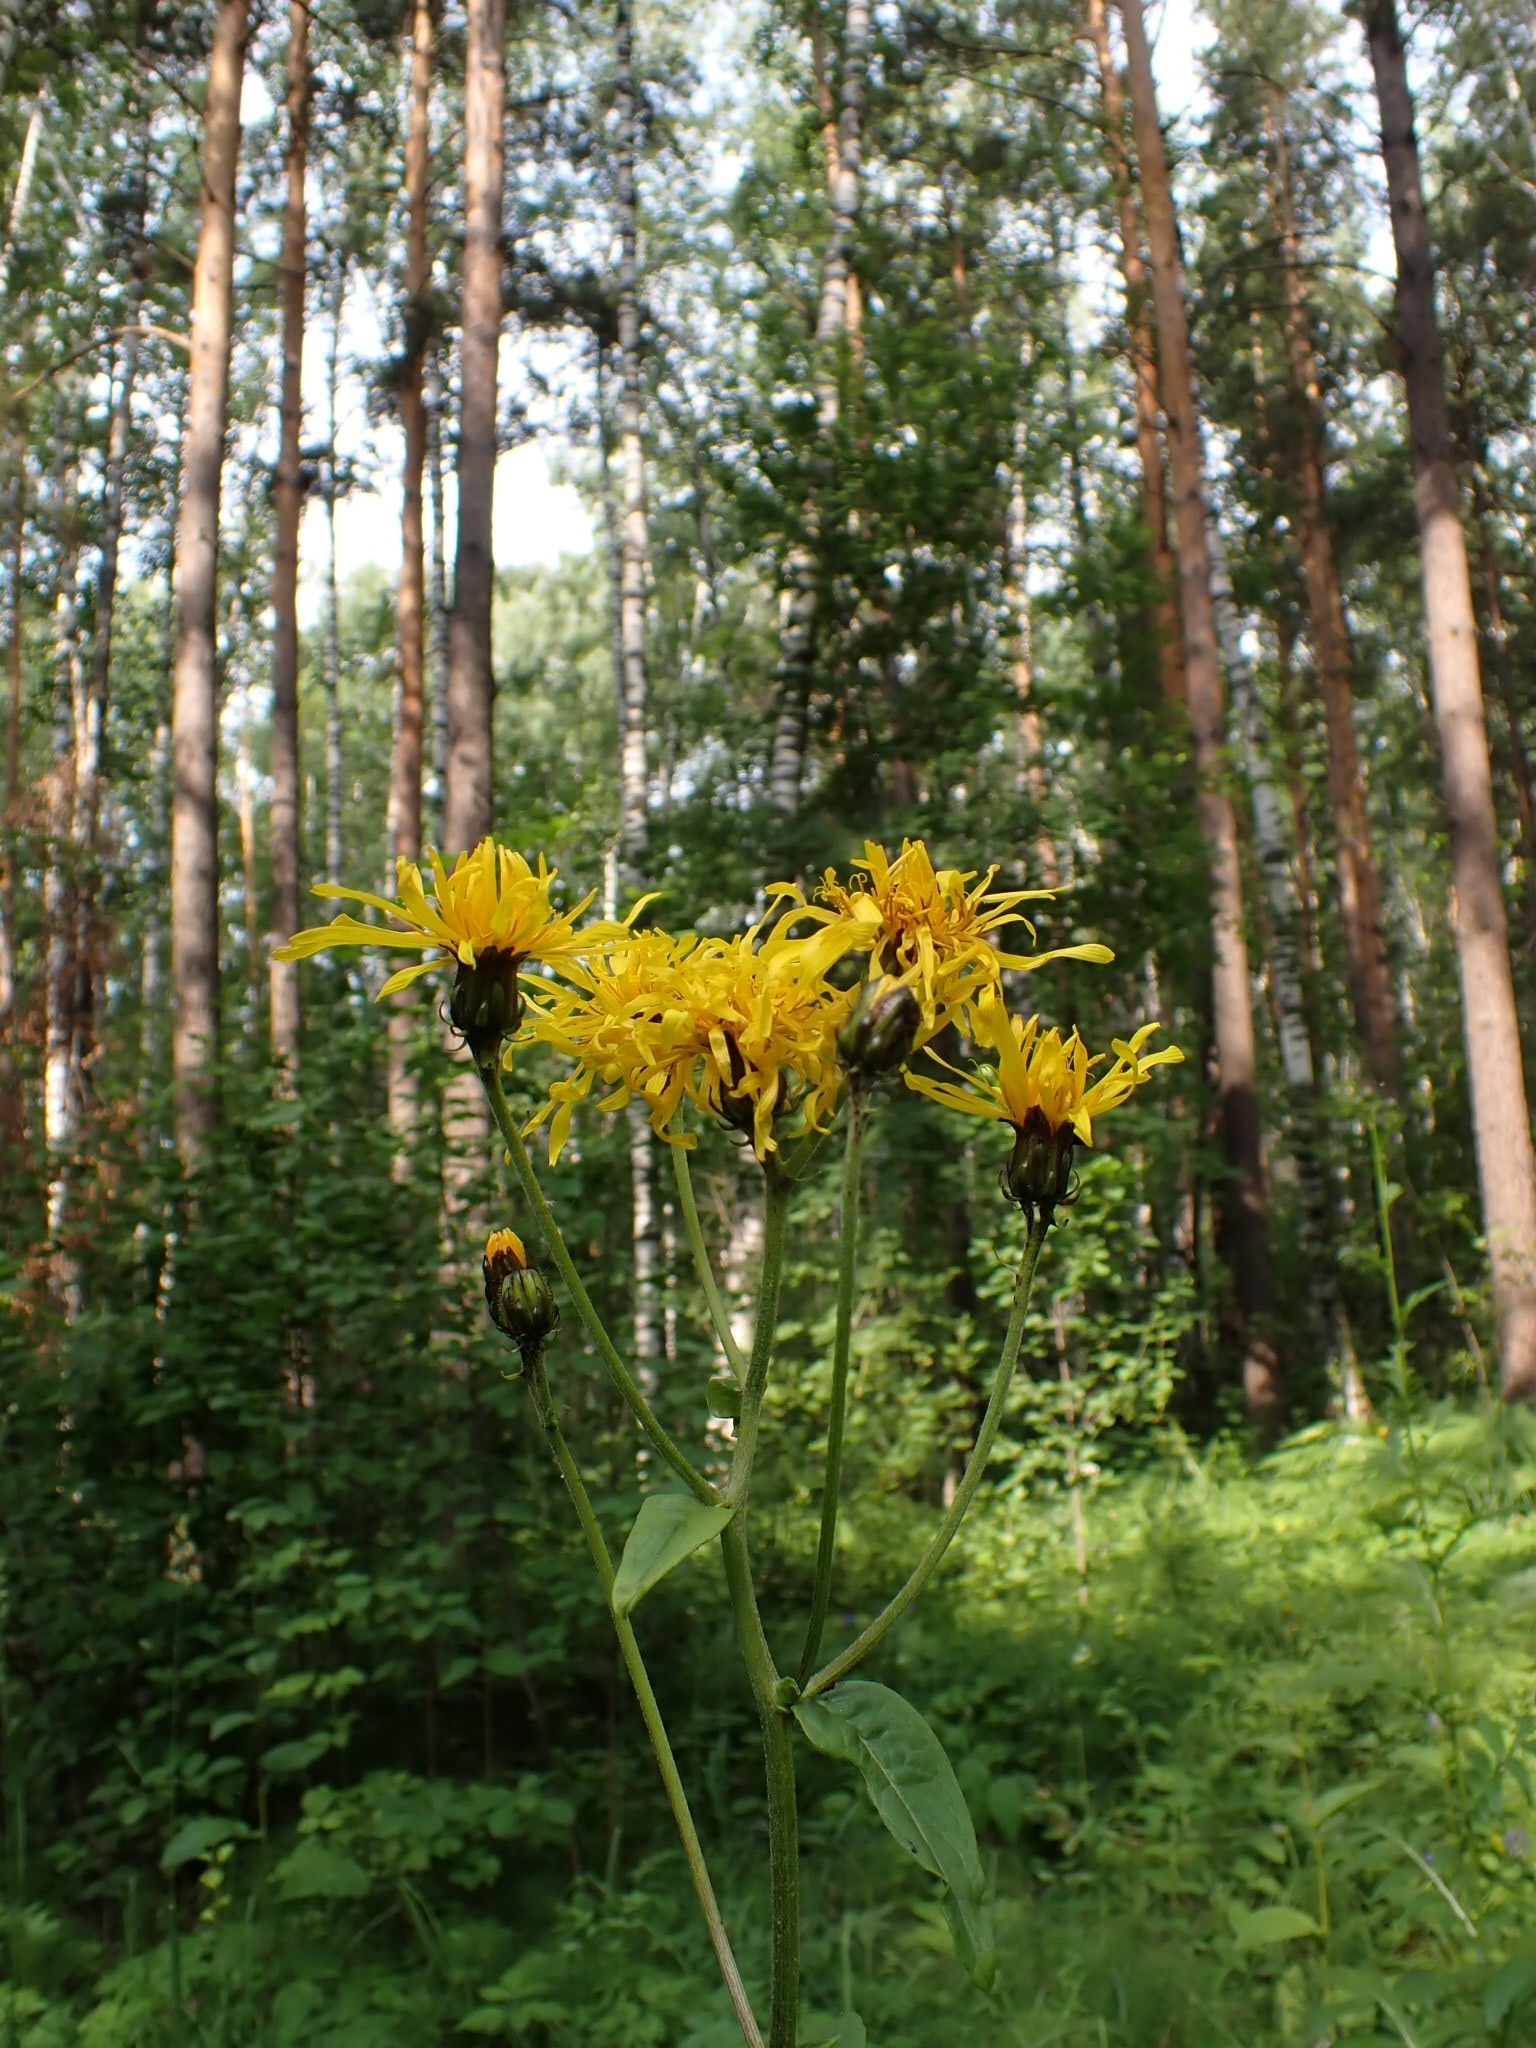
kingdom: Plantae
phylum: Tracheophyta
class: Magnoliopsida
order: Asterales
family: Asteraceae
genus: Crepis
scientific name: Crepis sibirica
